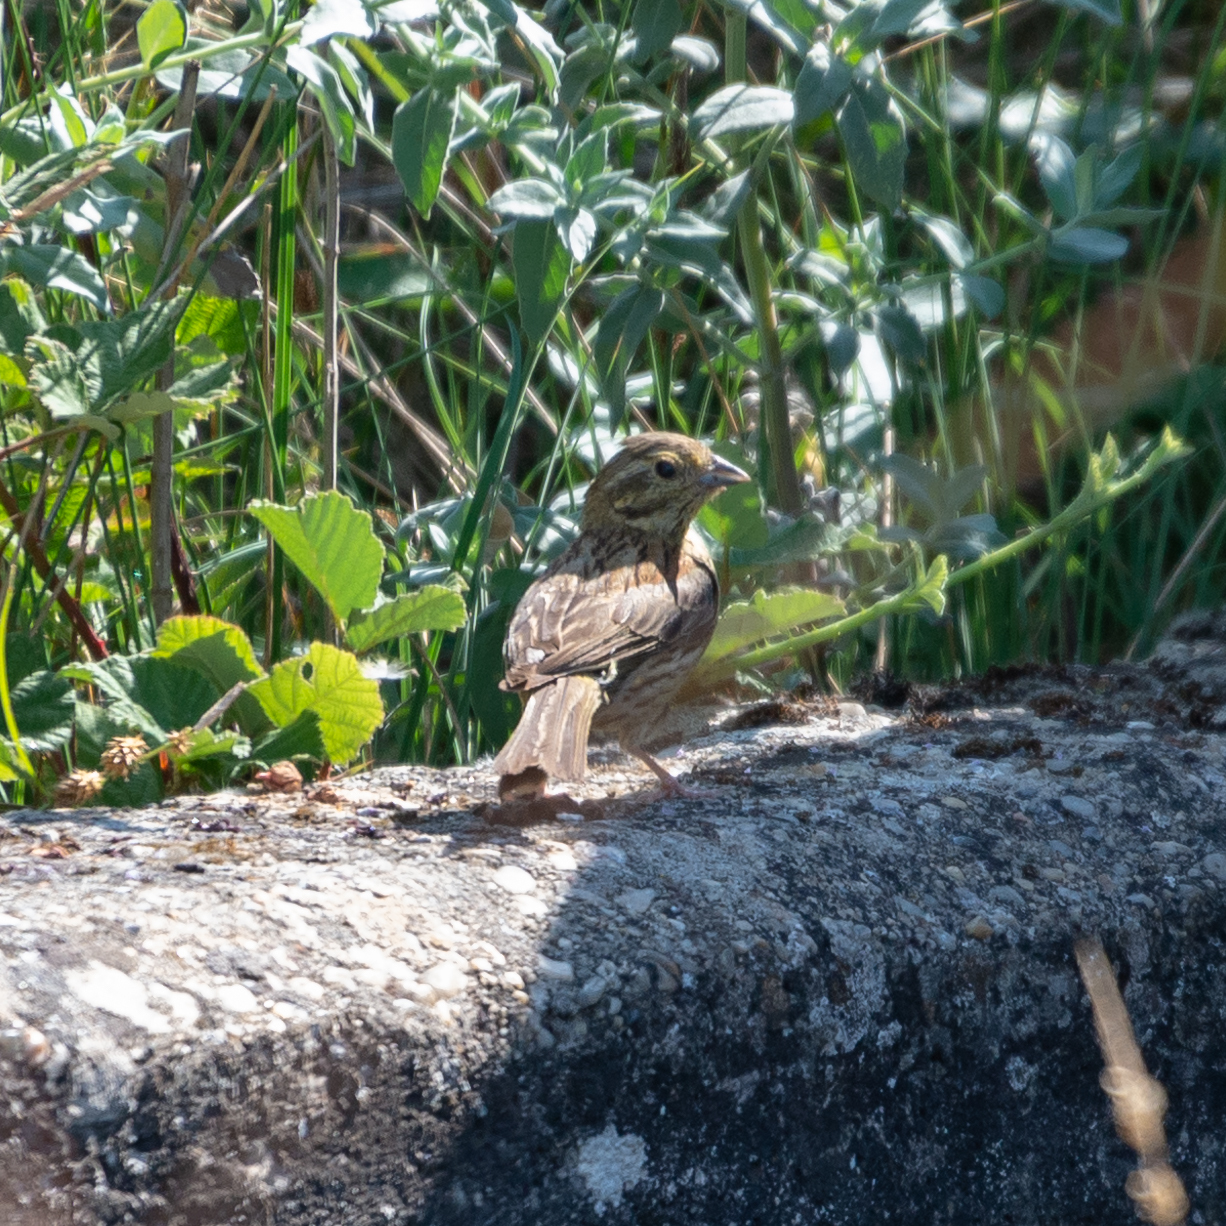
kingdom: Animalia
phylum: Chordata
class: Aves
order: Passeriformes
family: Emberizidae
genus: Emberiza
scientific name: Emberiza cirlus
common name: Cirl bunting
